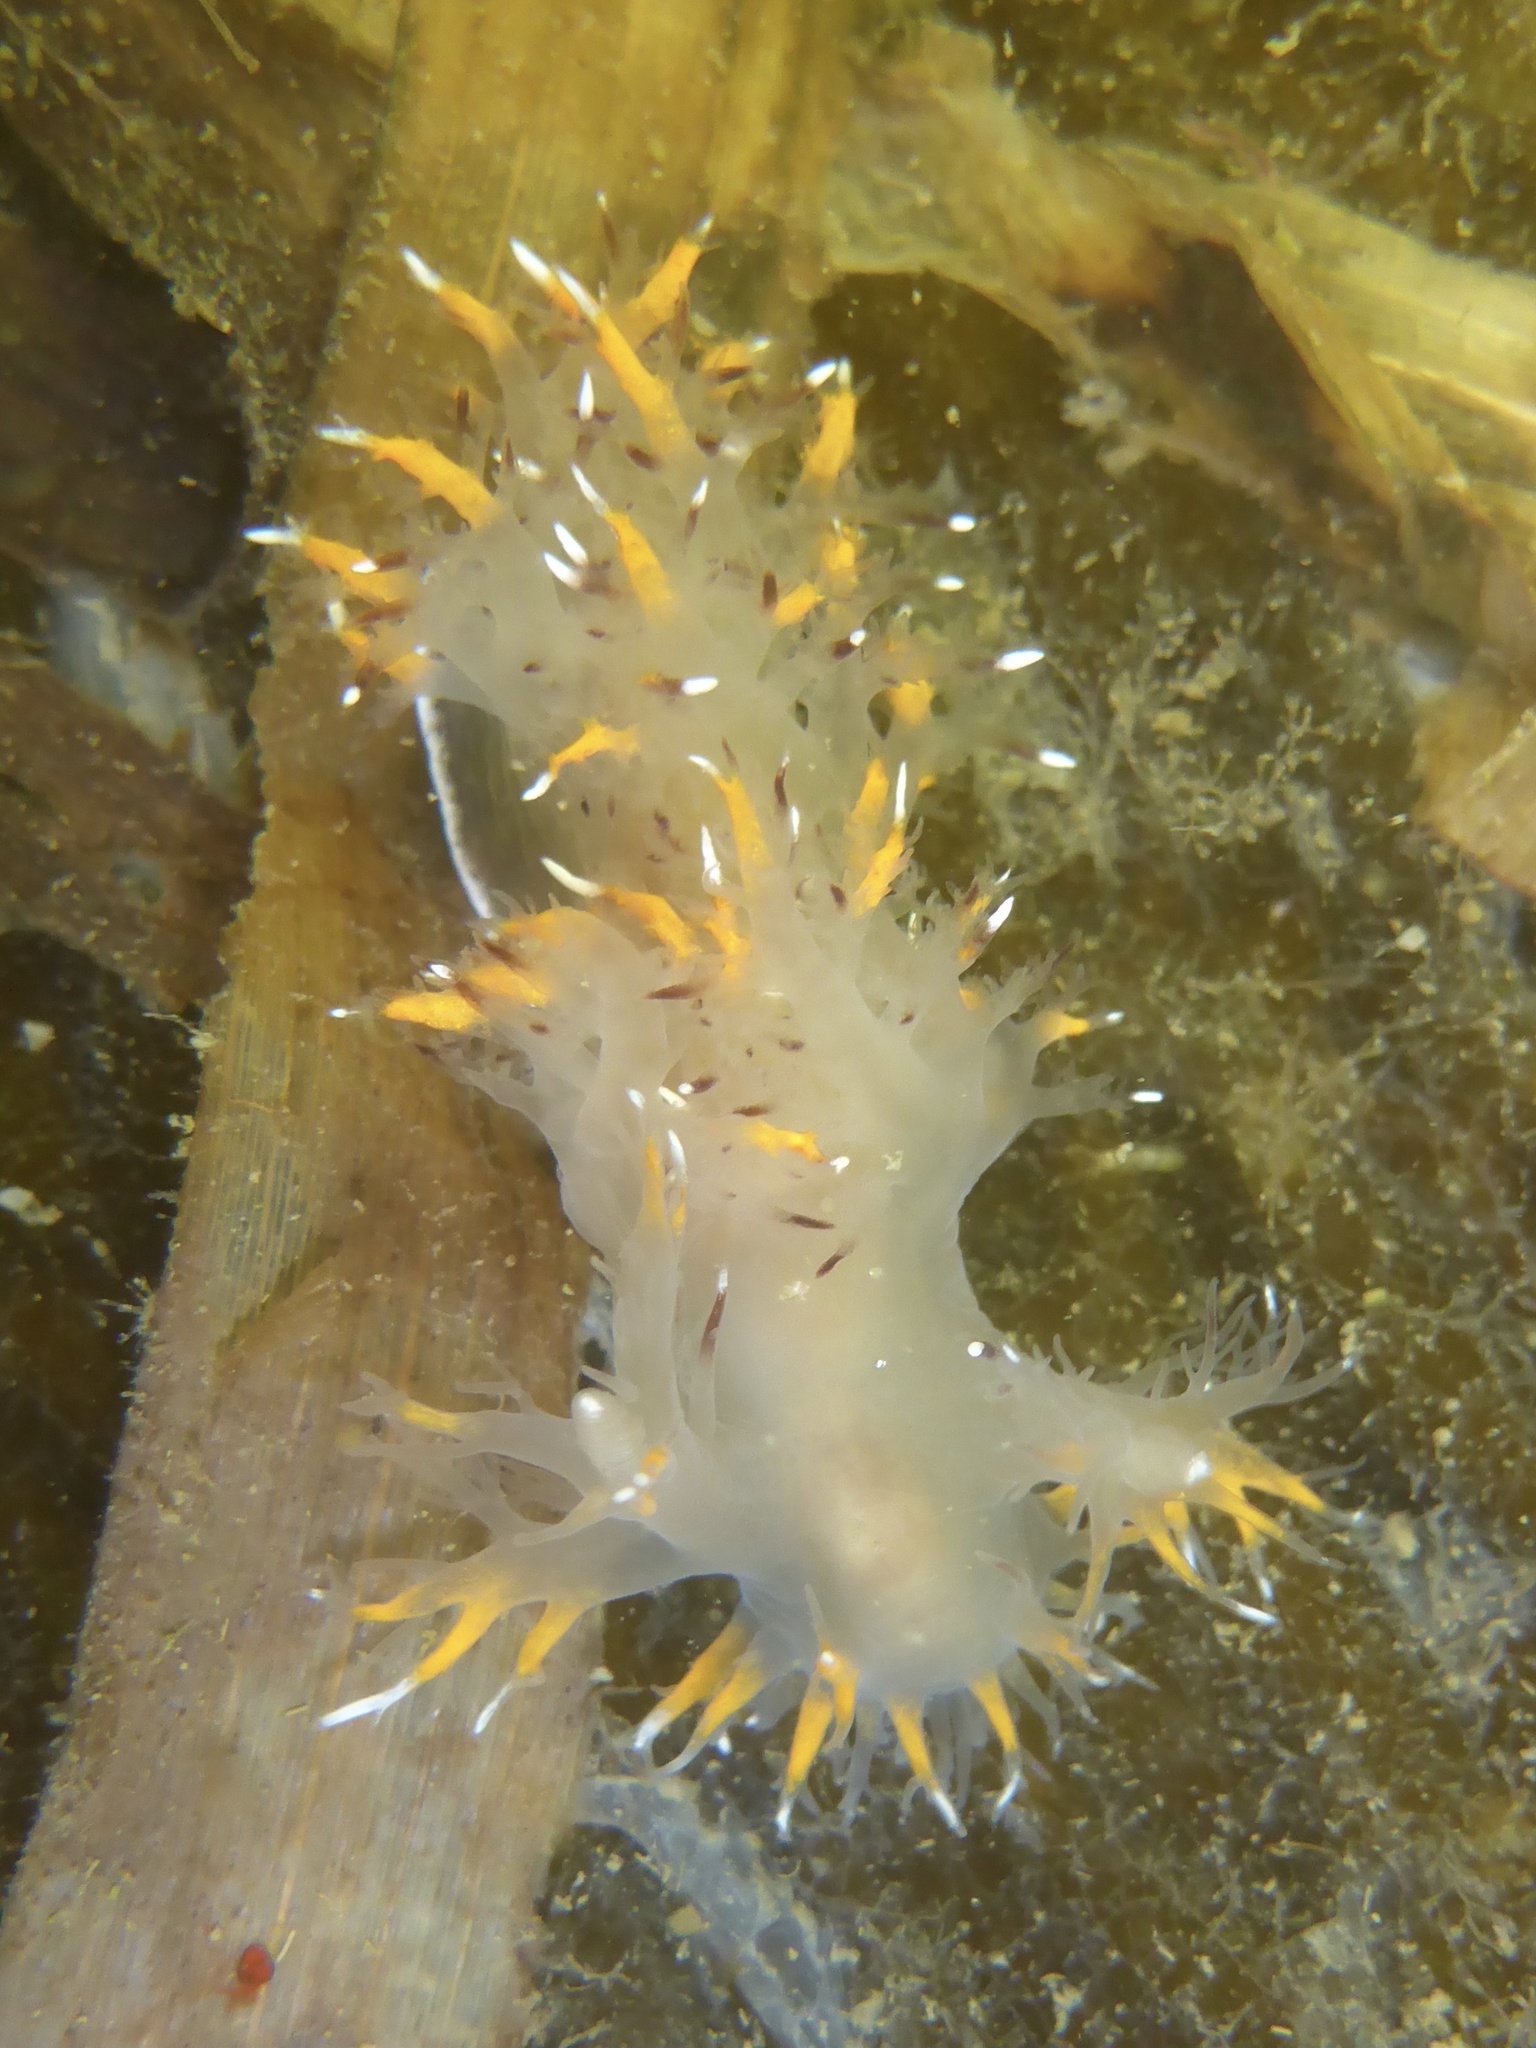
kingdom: Animalia
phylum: Mollusca
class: Gastropoda
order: Nudibranchia
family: Dendronotidae
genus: Dendronotus
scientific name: Dendronotus iris
